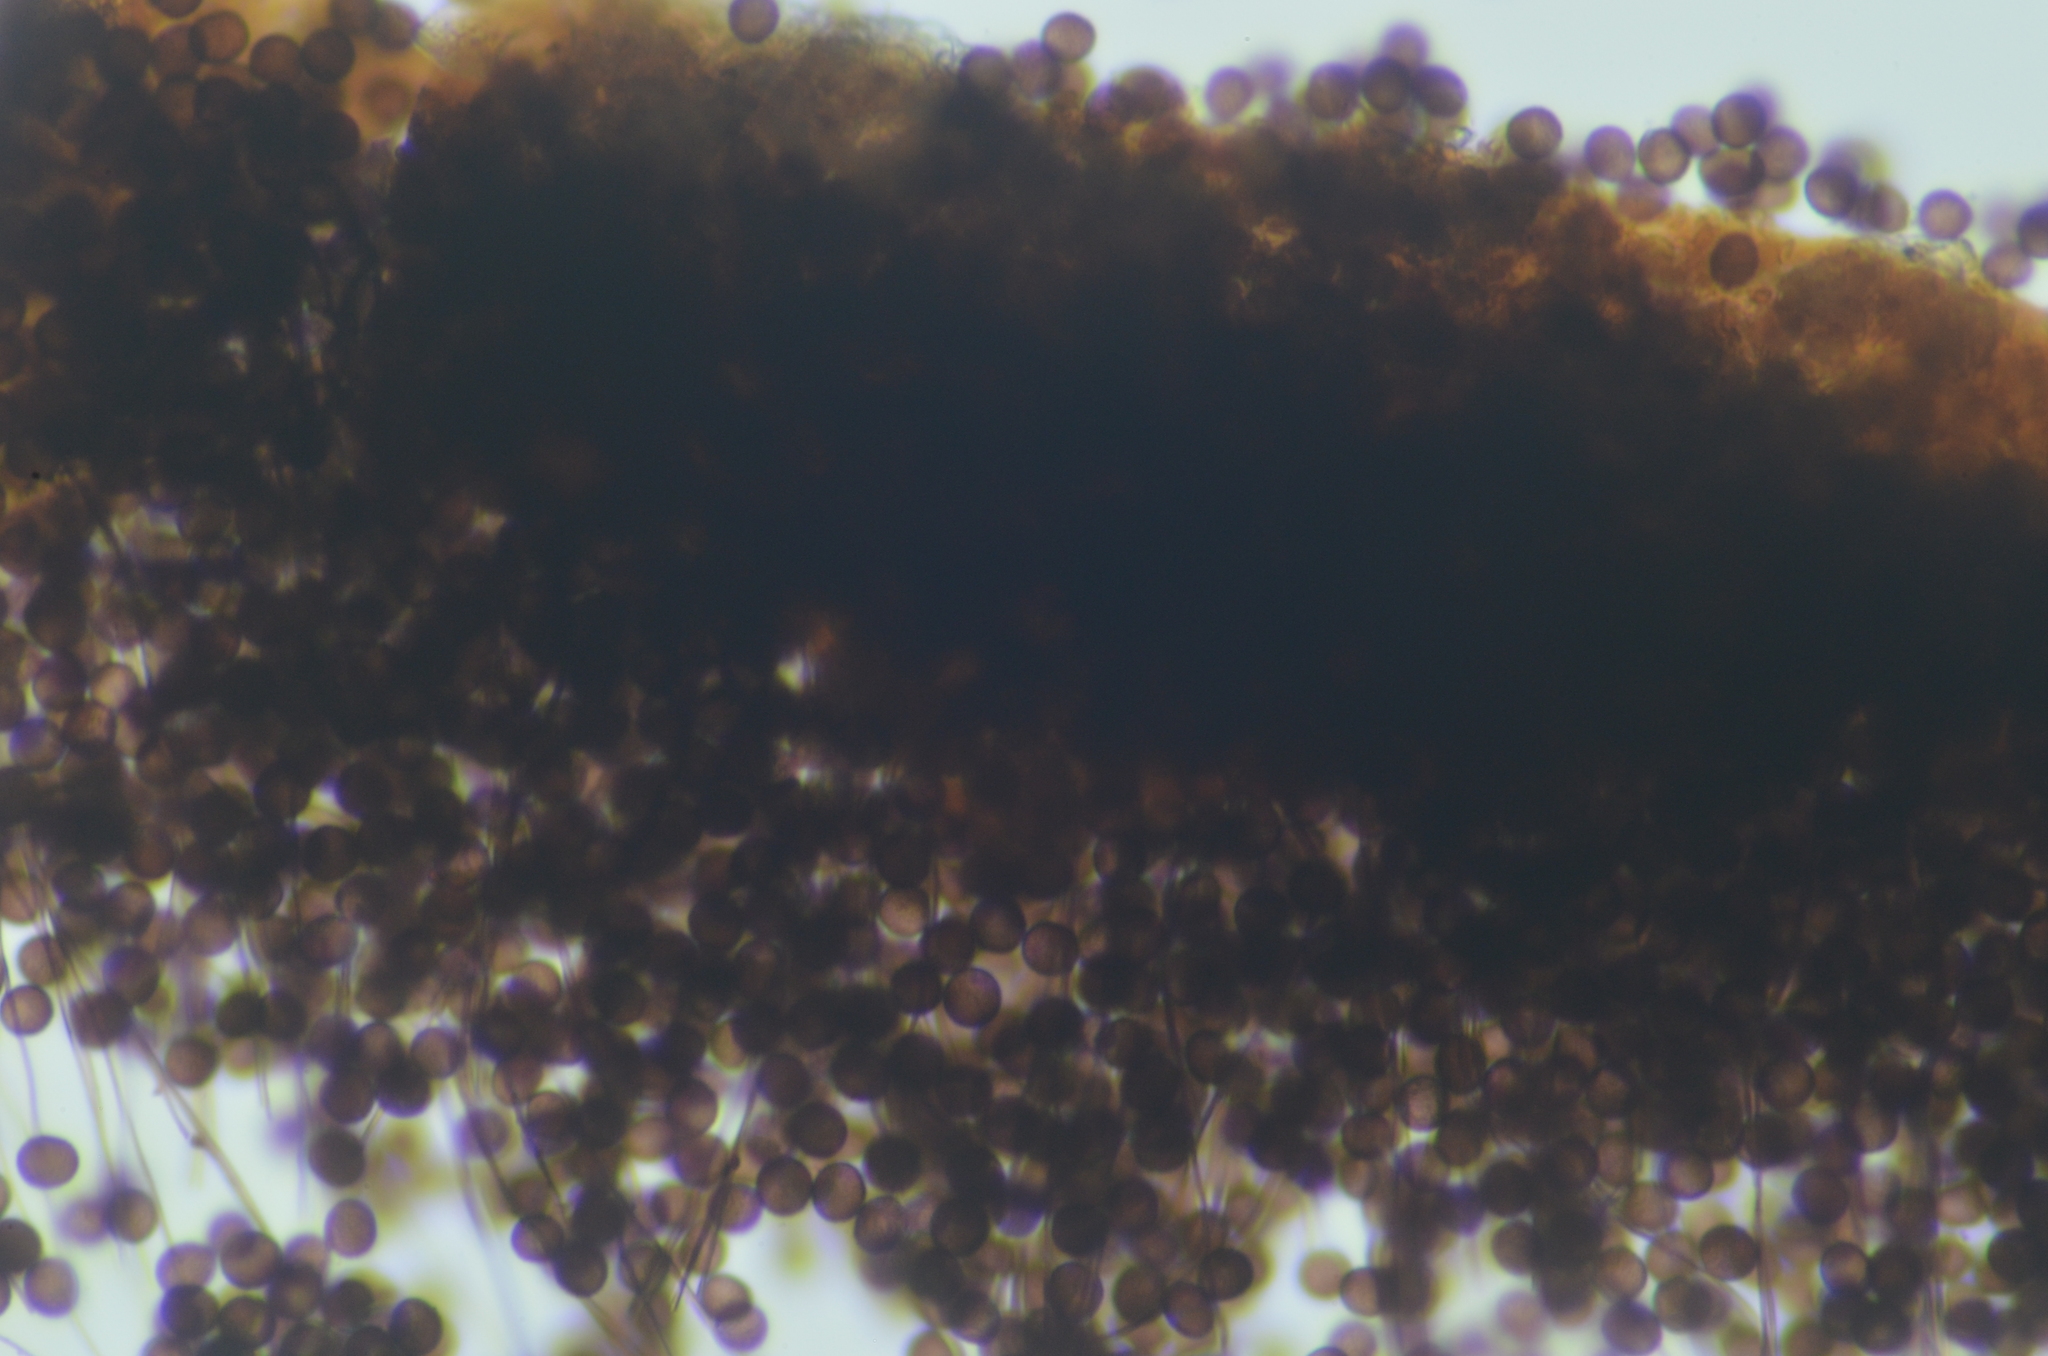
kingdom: Protozoa
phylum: Mycetozoa
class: Myxomycetes
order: Physarales
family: Didymiaceae
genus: Lepidoderma
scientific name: Lepidoderma tigrinum
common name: Lepidoderma crassipes
